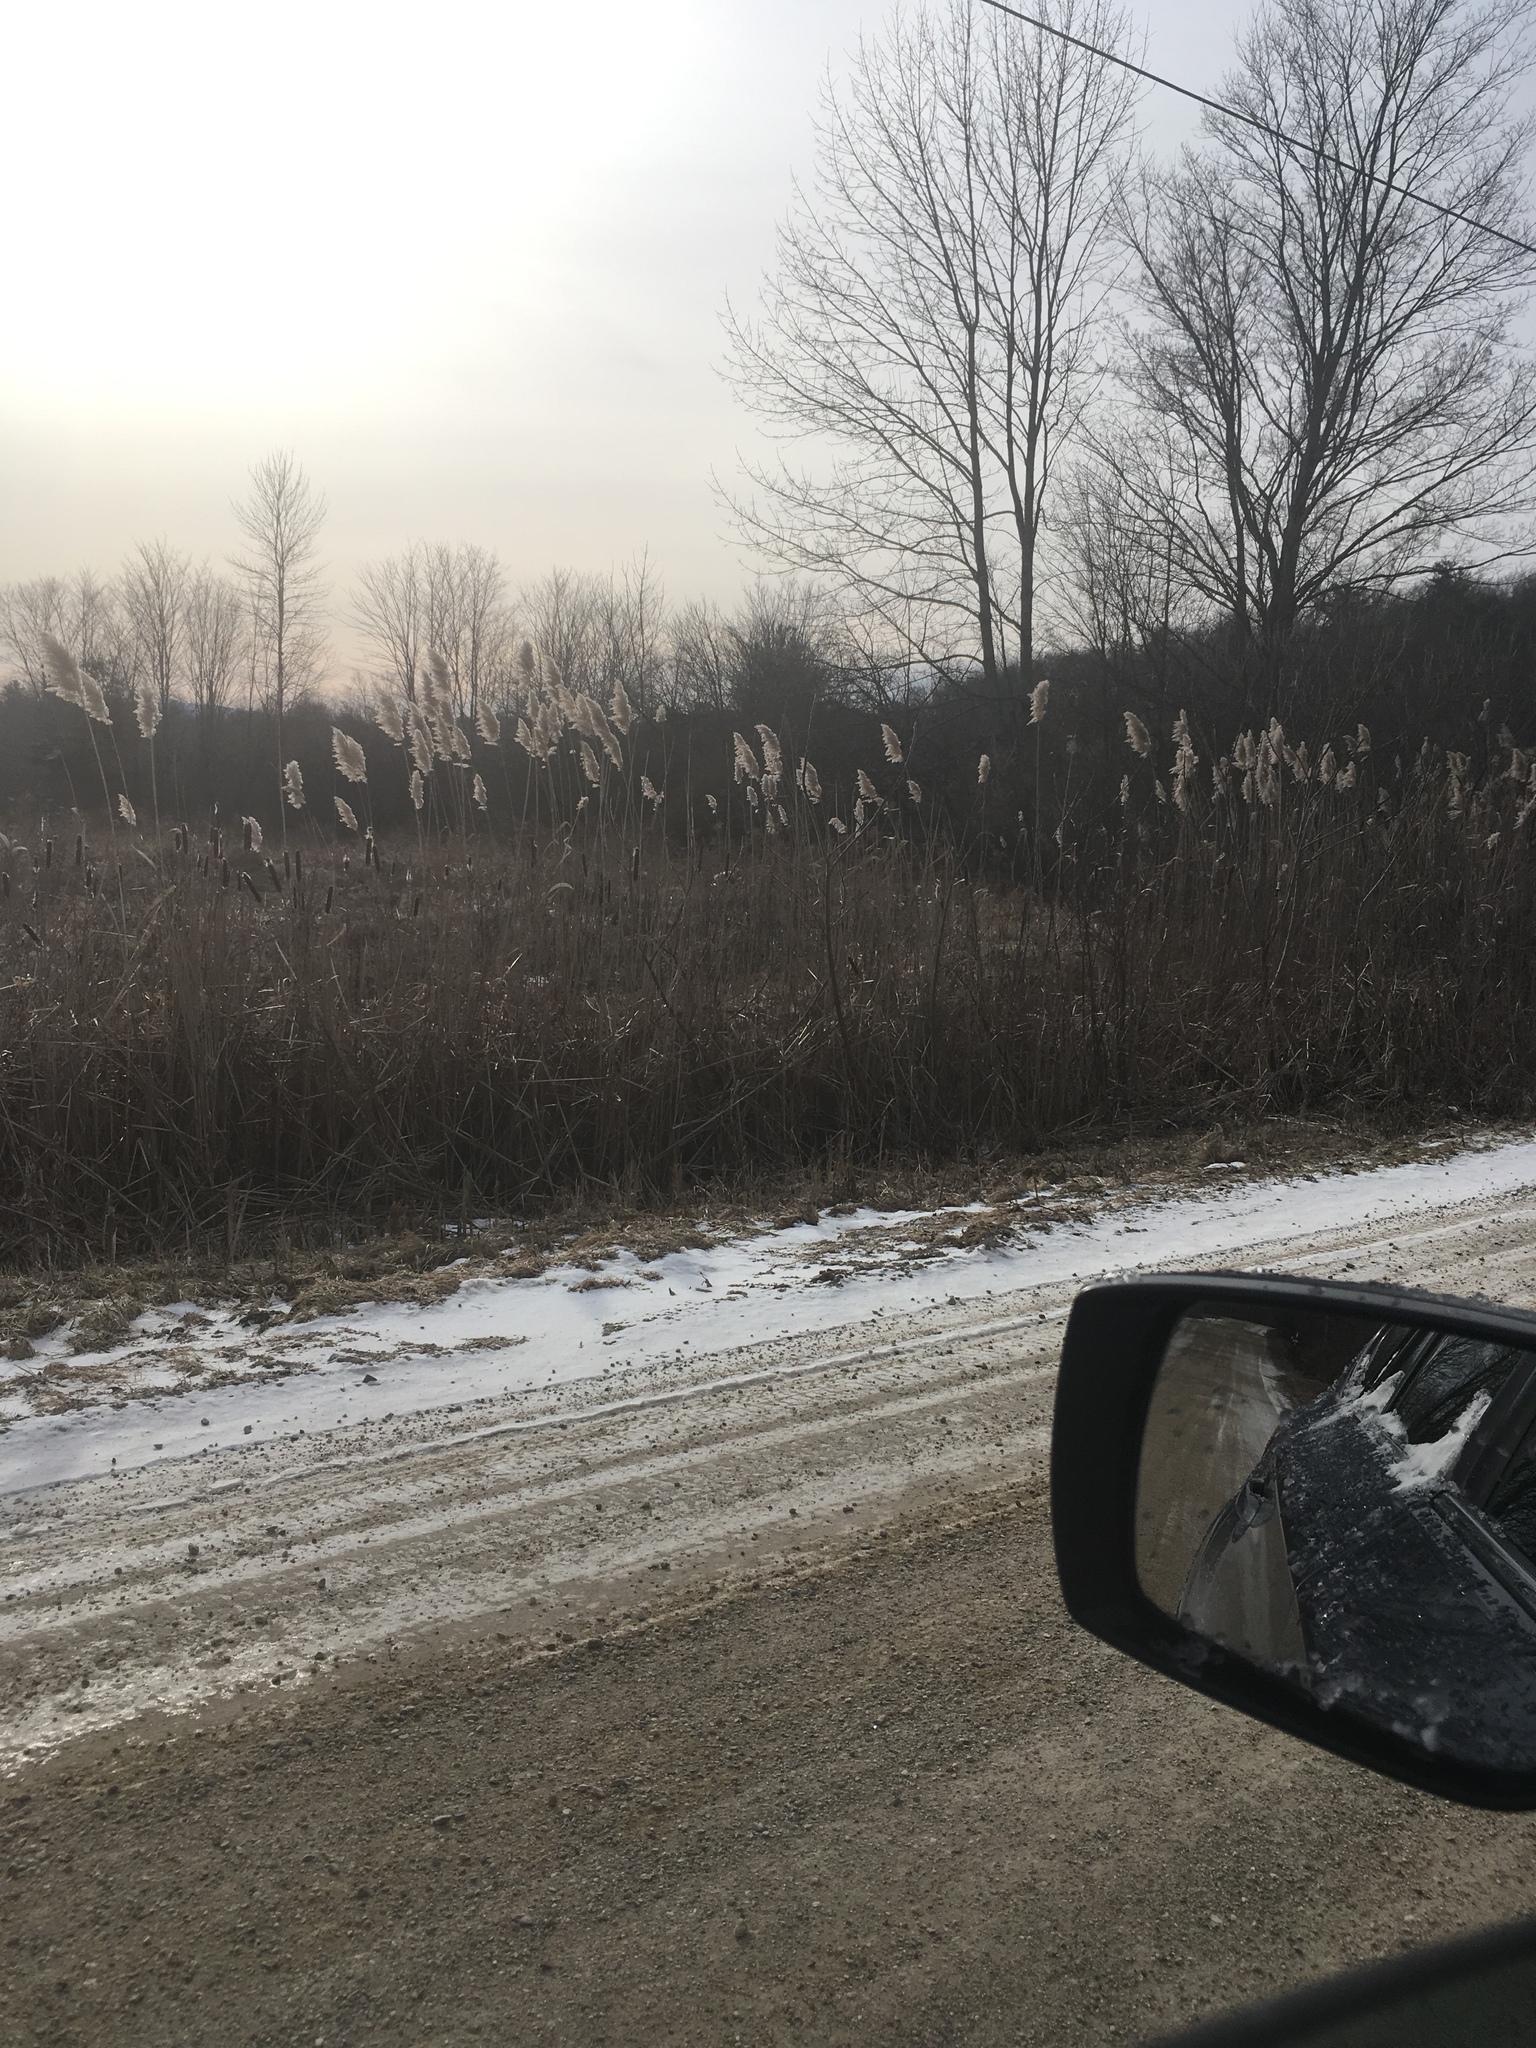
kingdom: Plantae
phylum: Tracheophyta
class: Liliopsida
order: Poales
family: Poaceae
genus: Phragmites
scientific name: Phragmites australis
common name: Common reed
